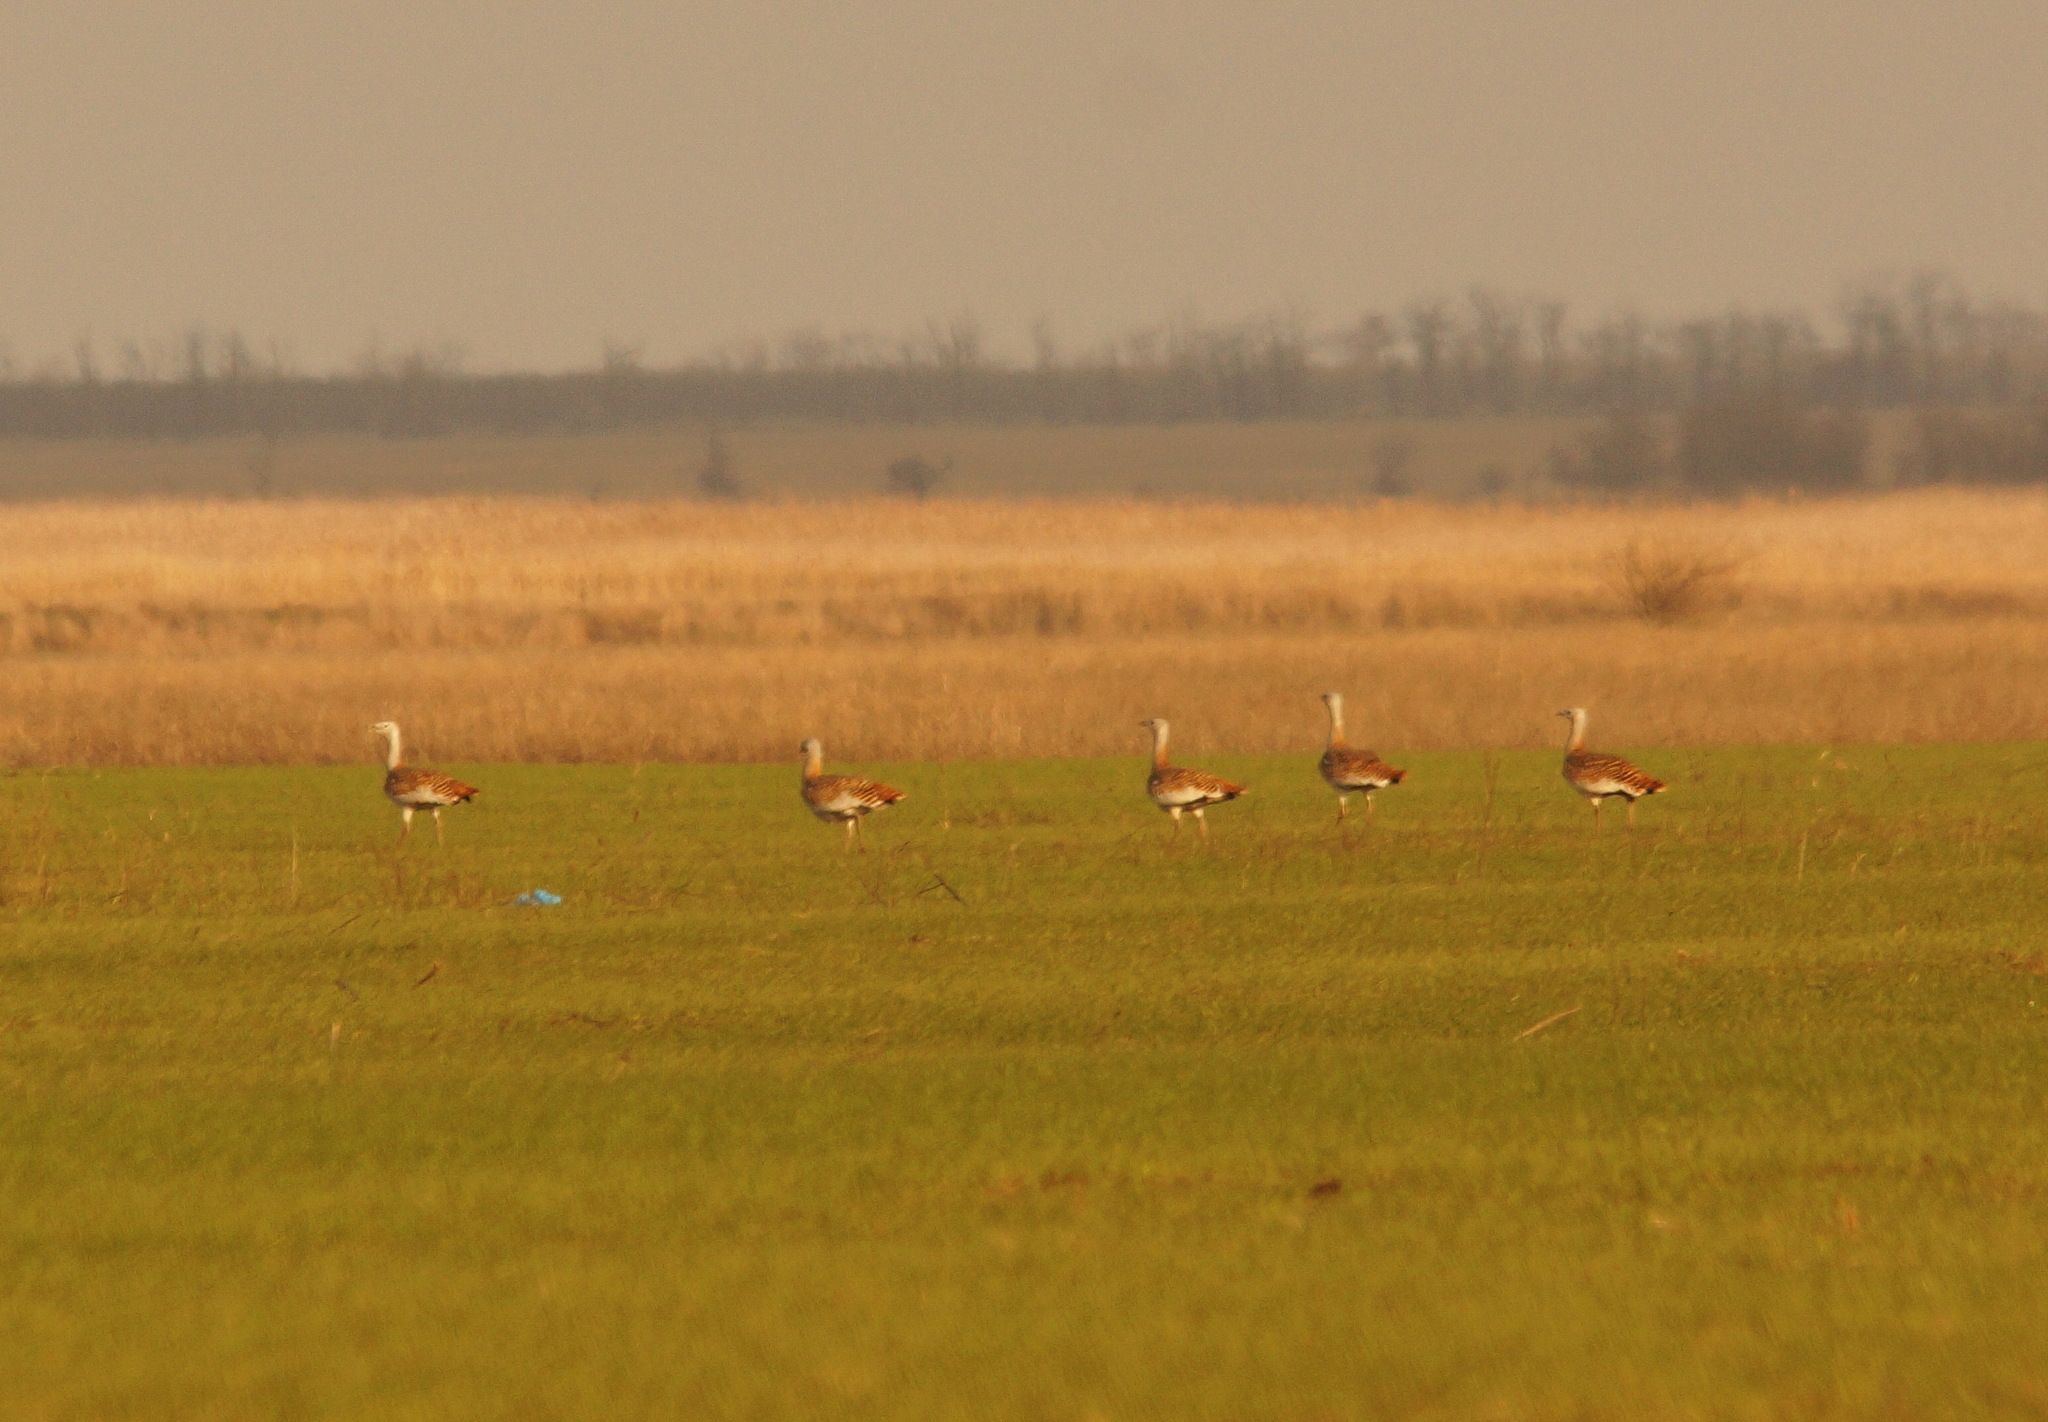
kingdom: Animalia
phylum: Chordata
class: Aves
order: Otidiformes
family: Otididae
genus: Otis
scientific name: Otis tarda
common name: Great bustard
